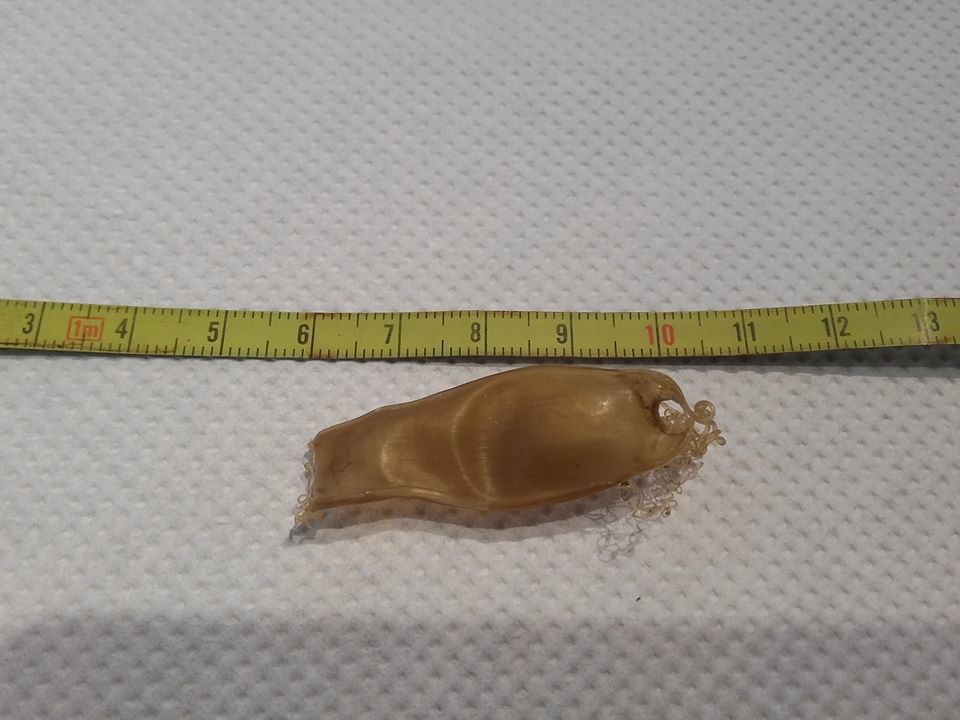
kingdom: Animalia
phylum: Chordata
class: Elasmobranchii
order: Carcharhiniformes
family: Scyliorhinidae
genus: Scyliorhinus
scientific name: Scyliorhinus canicula
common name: Lesser spotted dogfish
